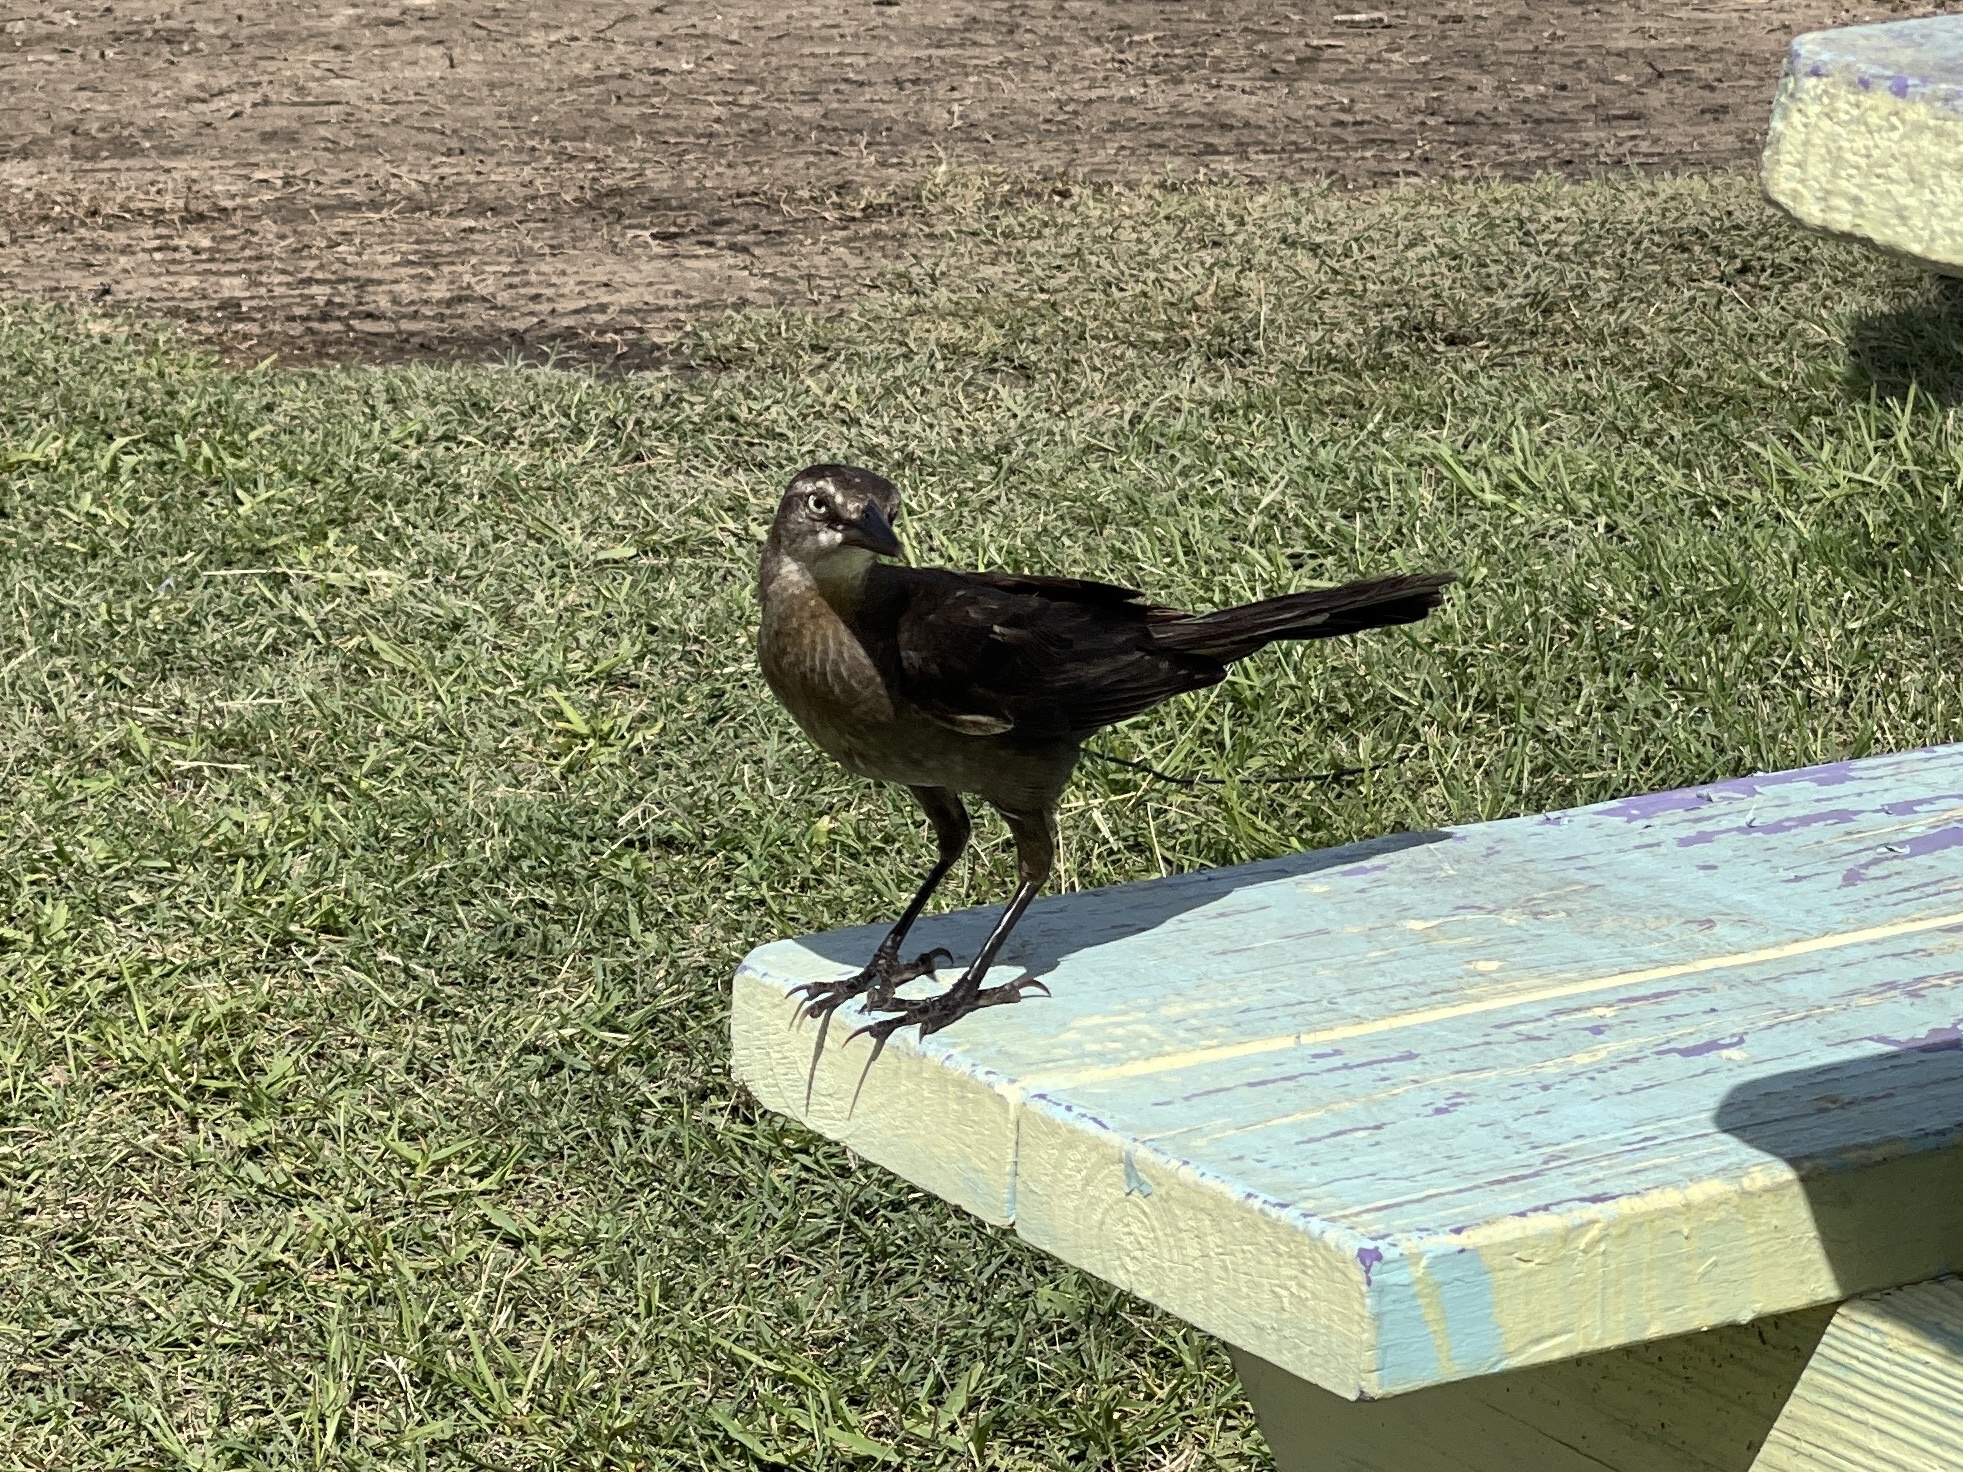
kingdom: Animalia
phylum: Chordata
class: Aves
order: Passeriformes
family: Icteridae
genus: Quiscalus
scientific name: Quiscalus mexicanus
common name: Great-tailed grackle
